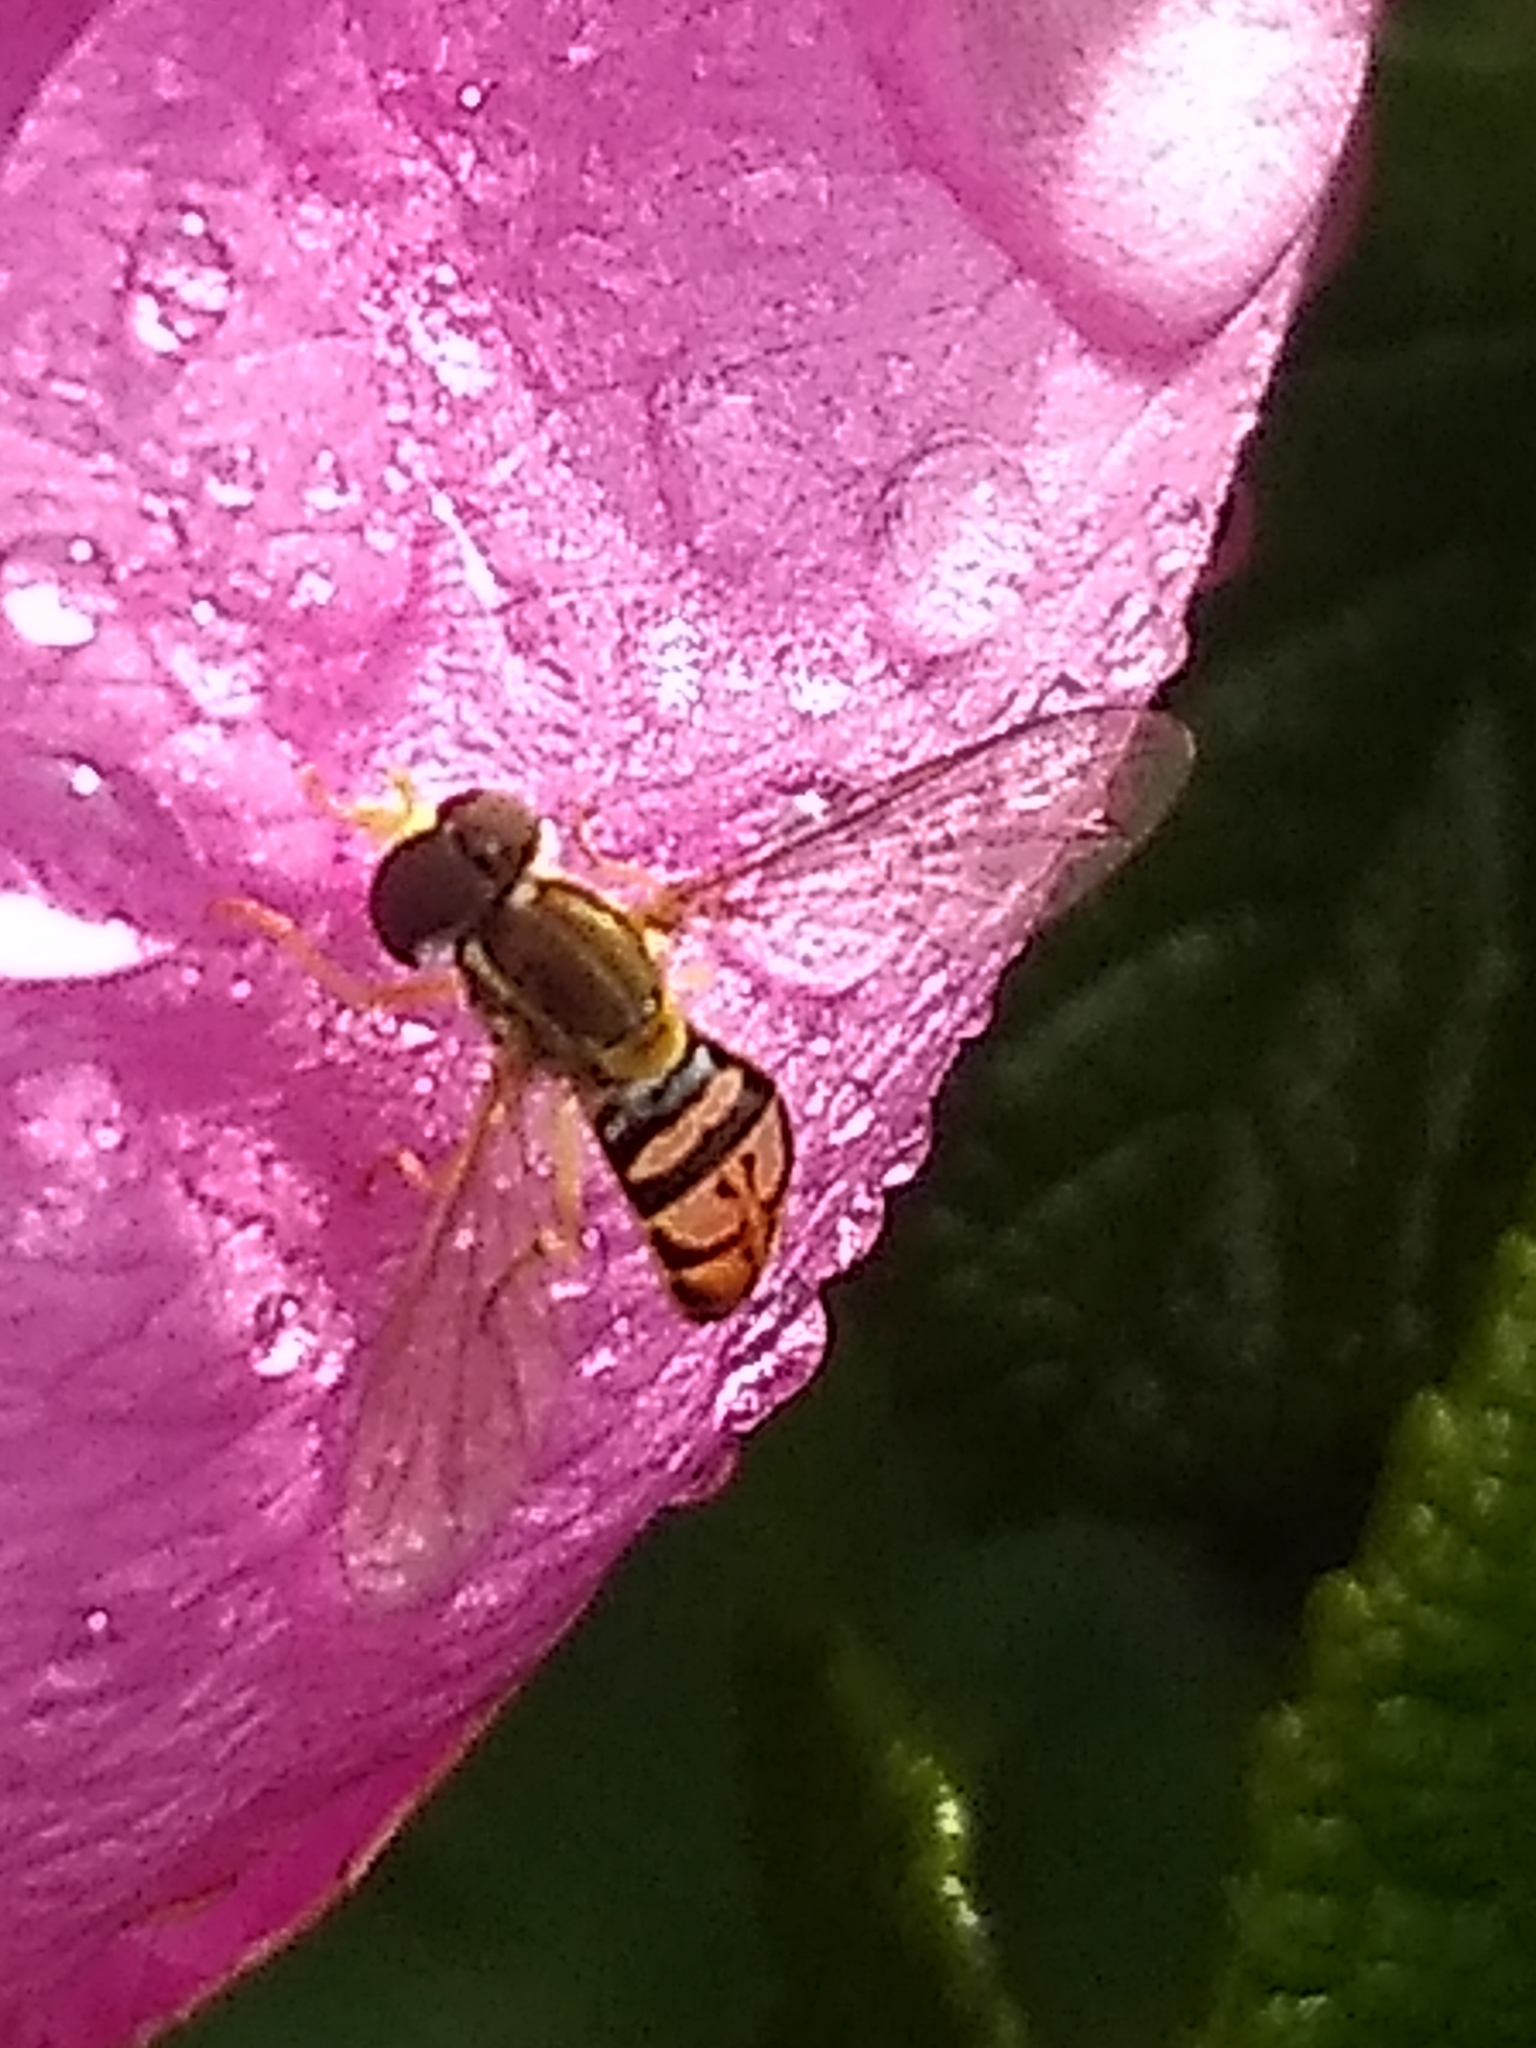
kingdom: Animalia
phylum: Arthropoda
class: Insecta
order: Diptera
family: Syrphidae
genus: Toxomerus
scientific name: Toxomerus marginatus
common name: Syrphid fly
